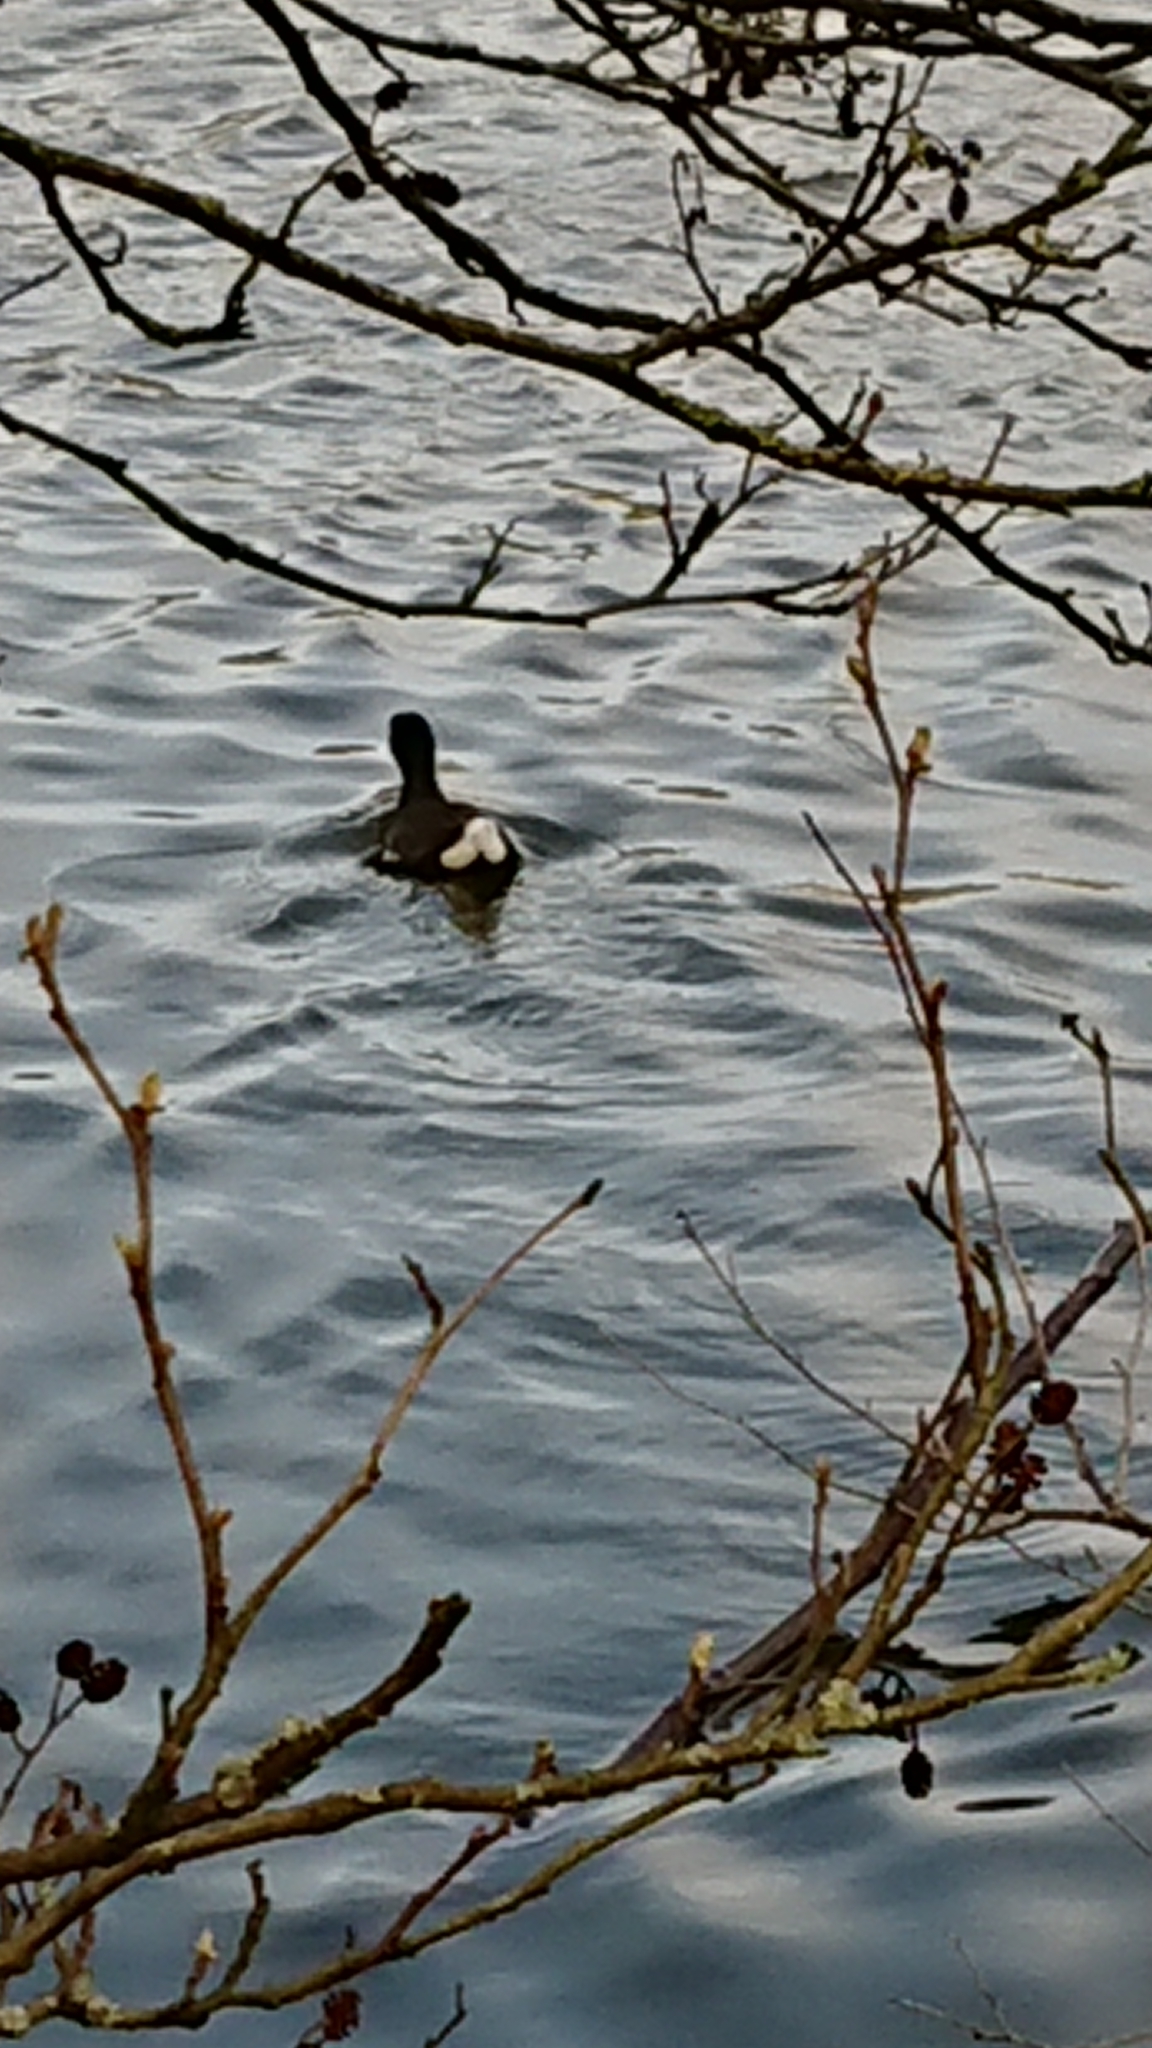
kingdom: Animalia
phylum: Chordata
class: Aves
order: Gruiformes
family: Rallidae
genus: Gallinula
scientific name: Gallinula chloropus
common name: Common moorhen
